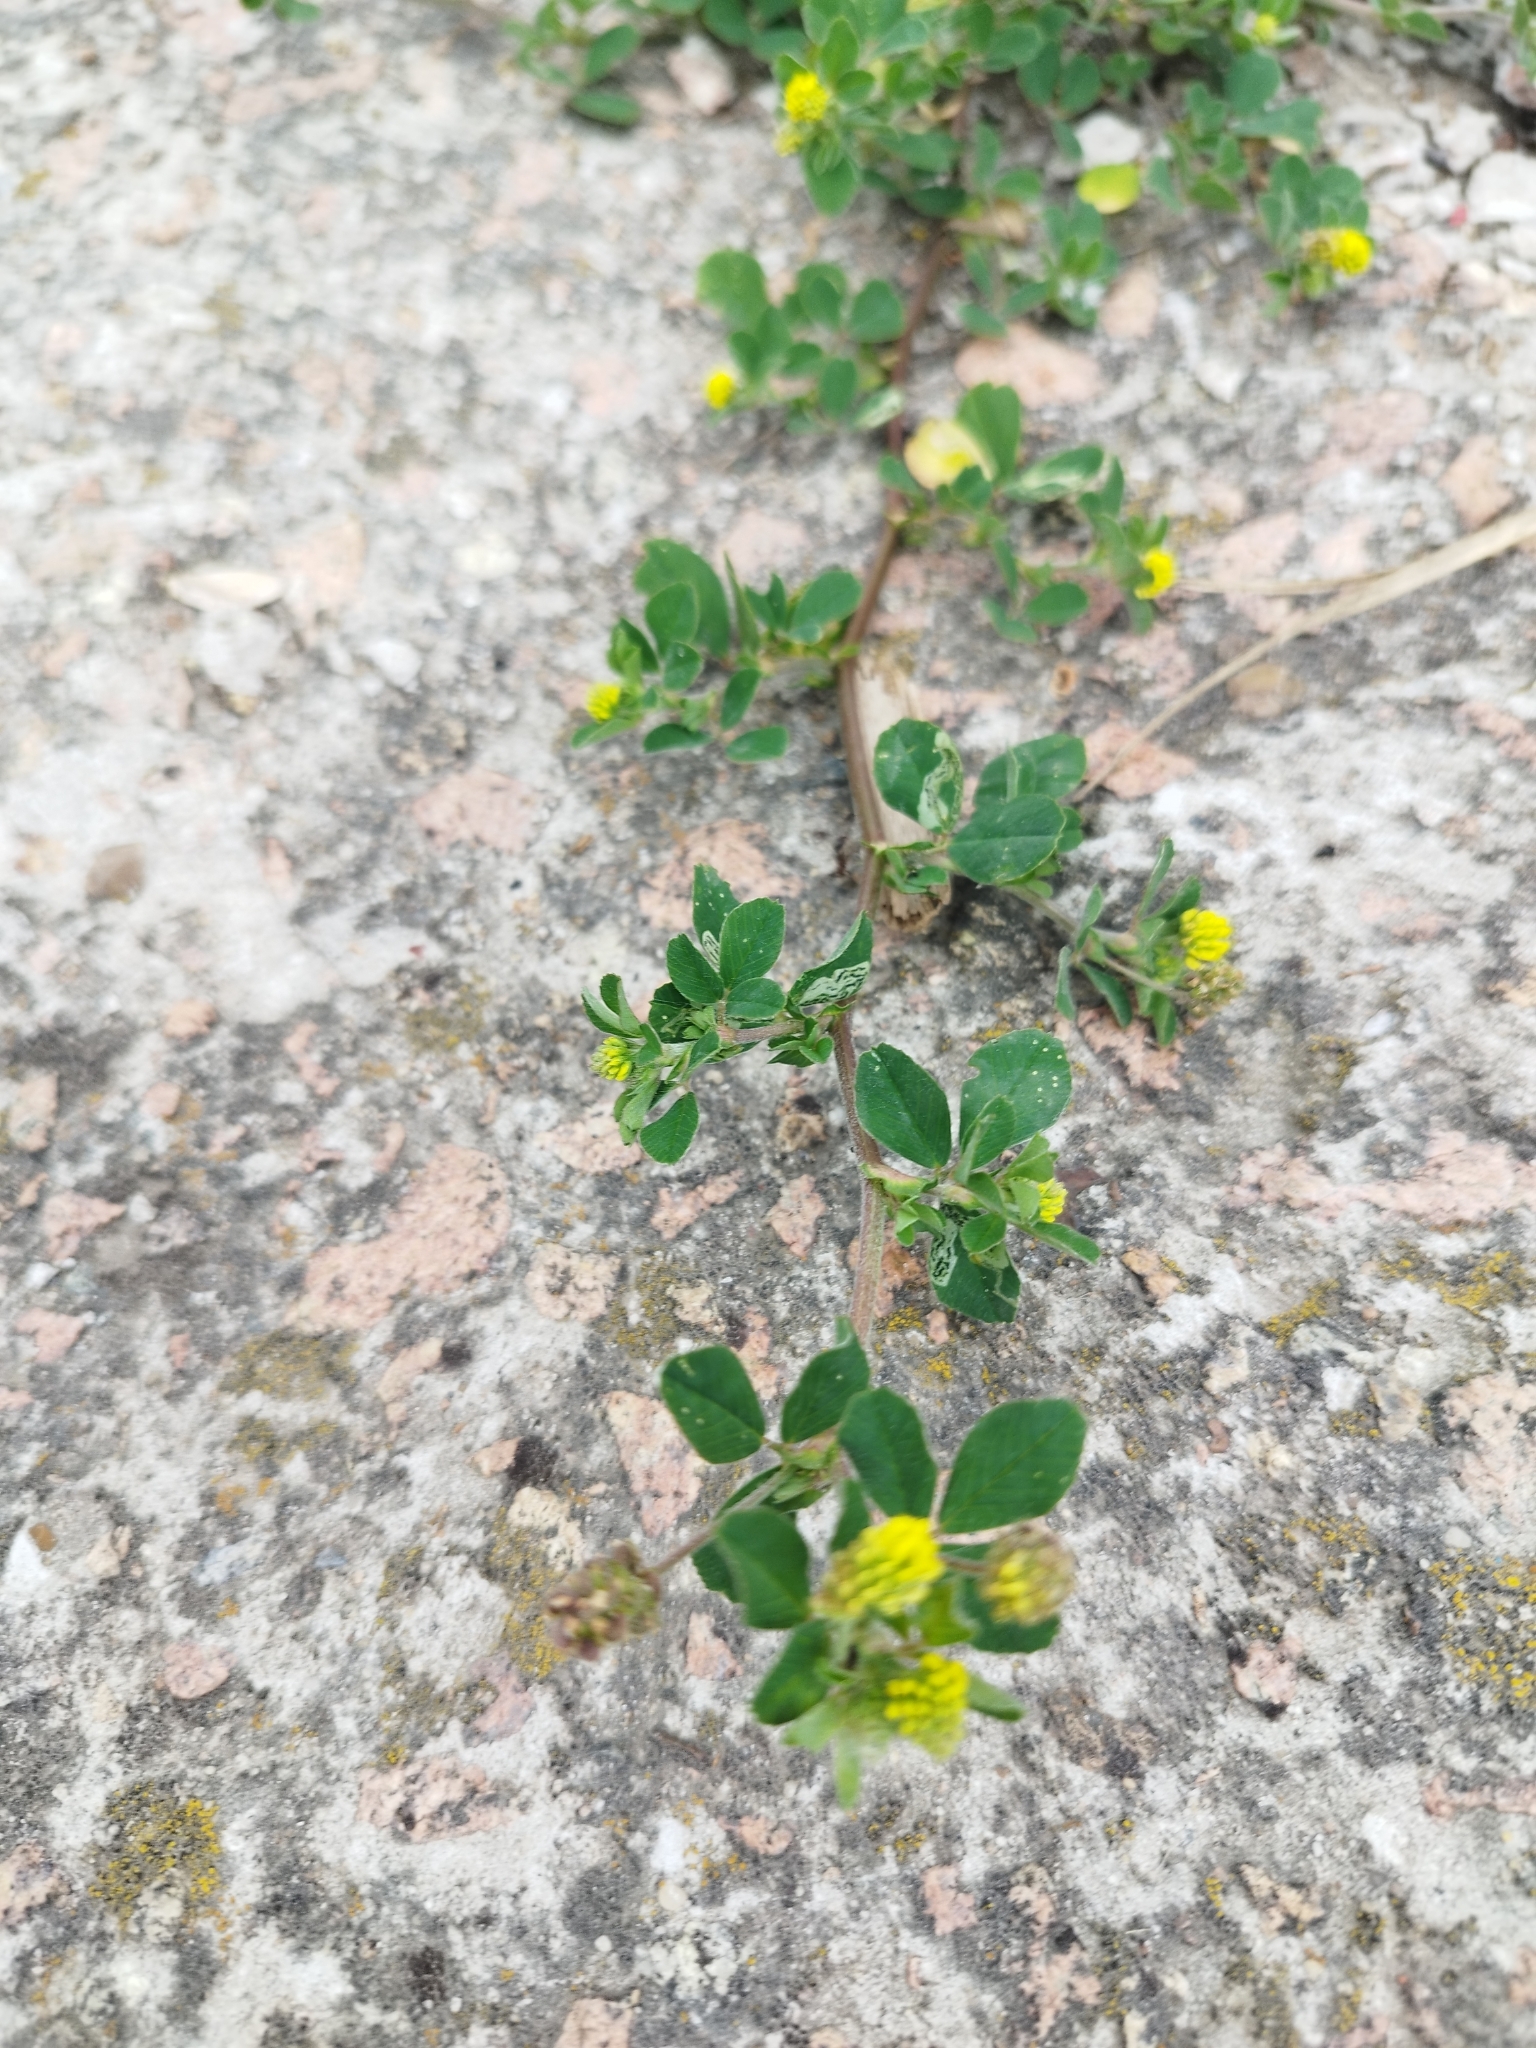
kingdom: Plantae
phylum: Tracheophyta
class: Magnoliopsida
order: Fabales
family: Fabaceae
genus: Medicago
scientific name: Medicago lupulina
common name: Black medick
